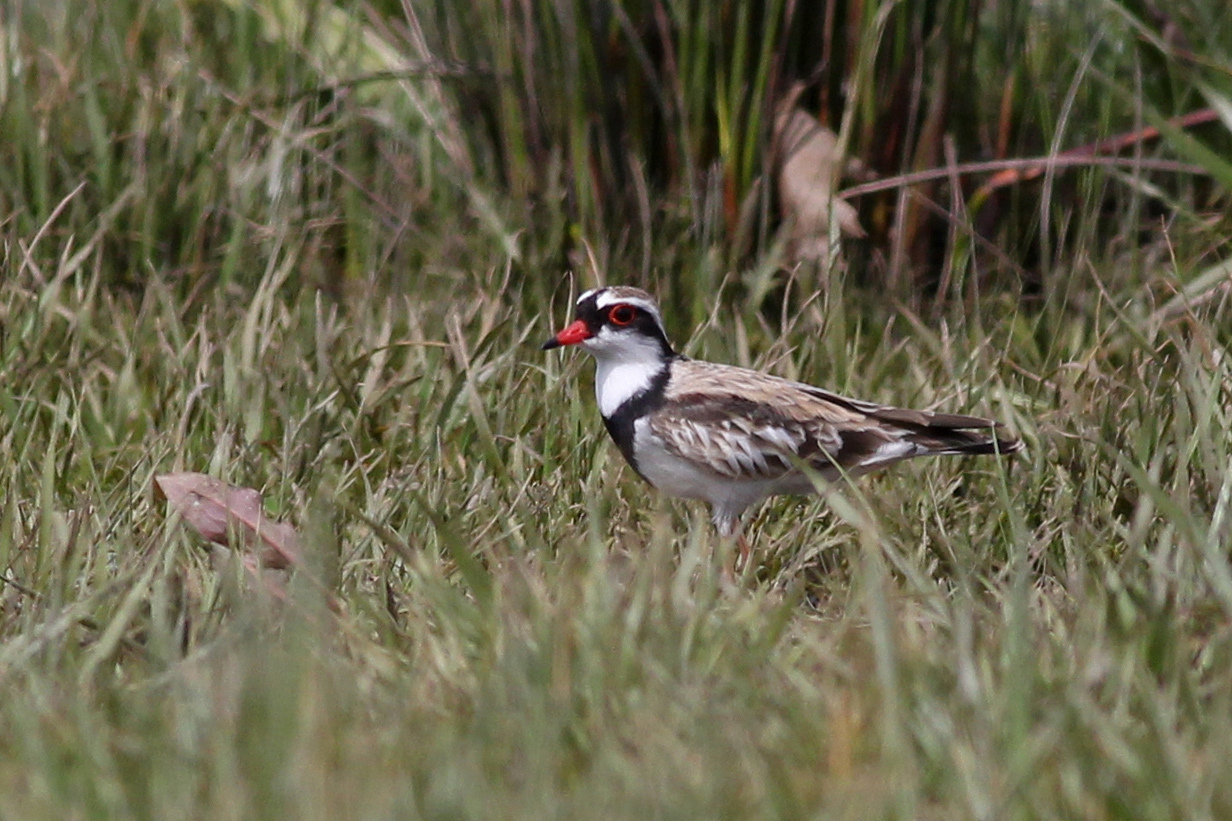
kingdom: Animalia
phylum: Chordata
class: Aves
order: Charadriiformes
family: Charadriidae
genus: Elseyornis
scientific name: Elseyornis melanops
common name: Black-fronted dotterel
